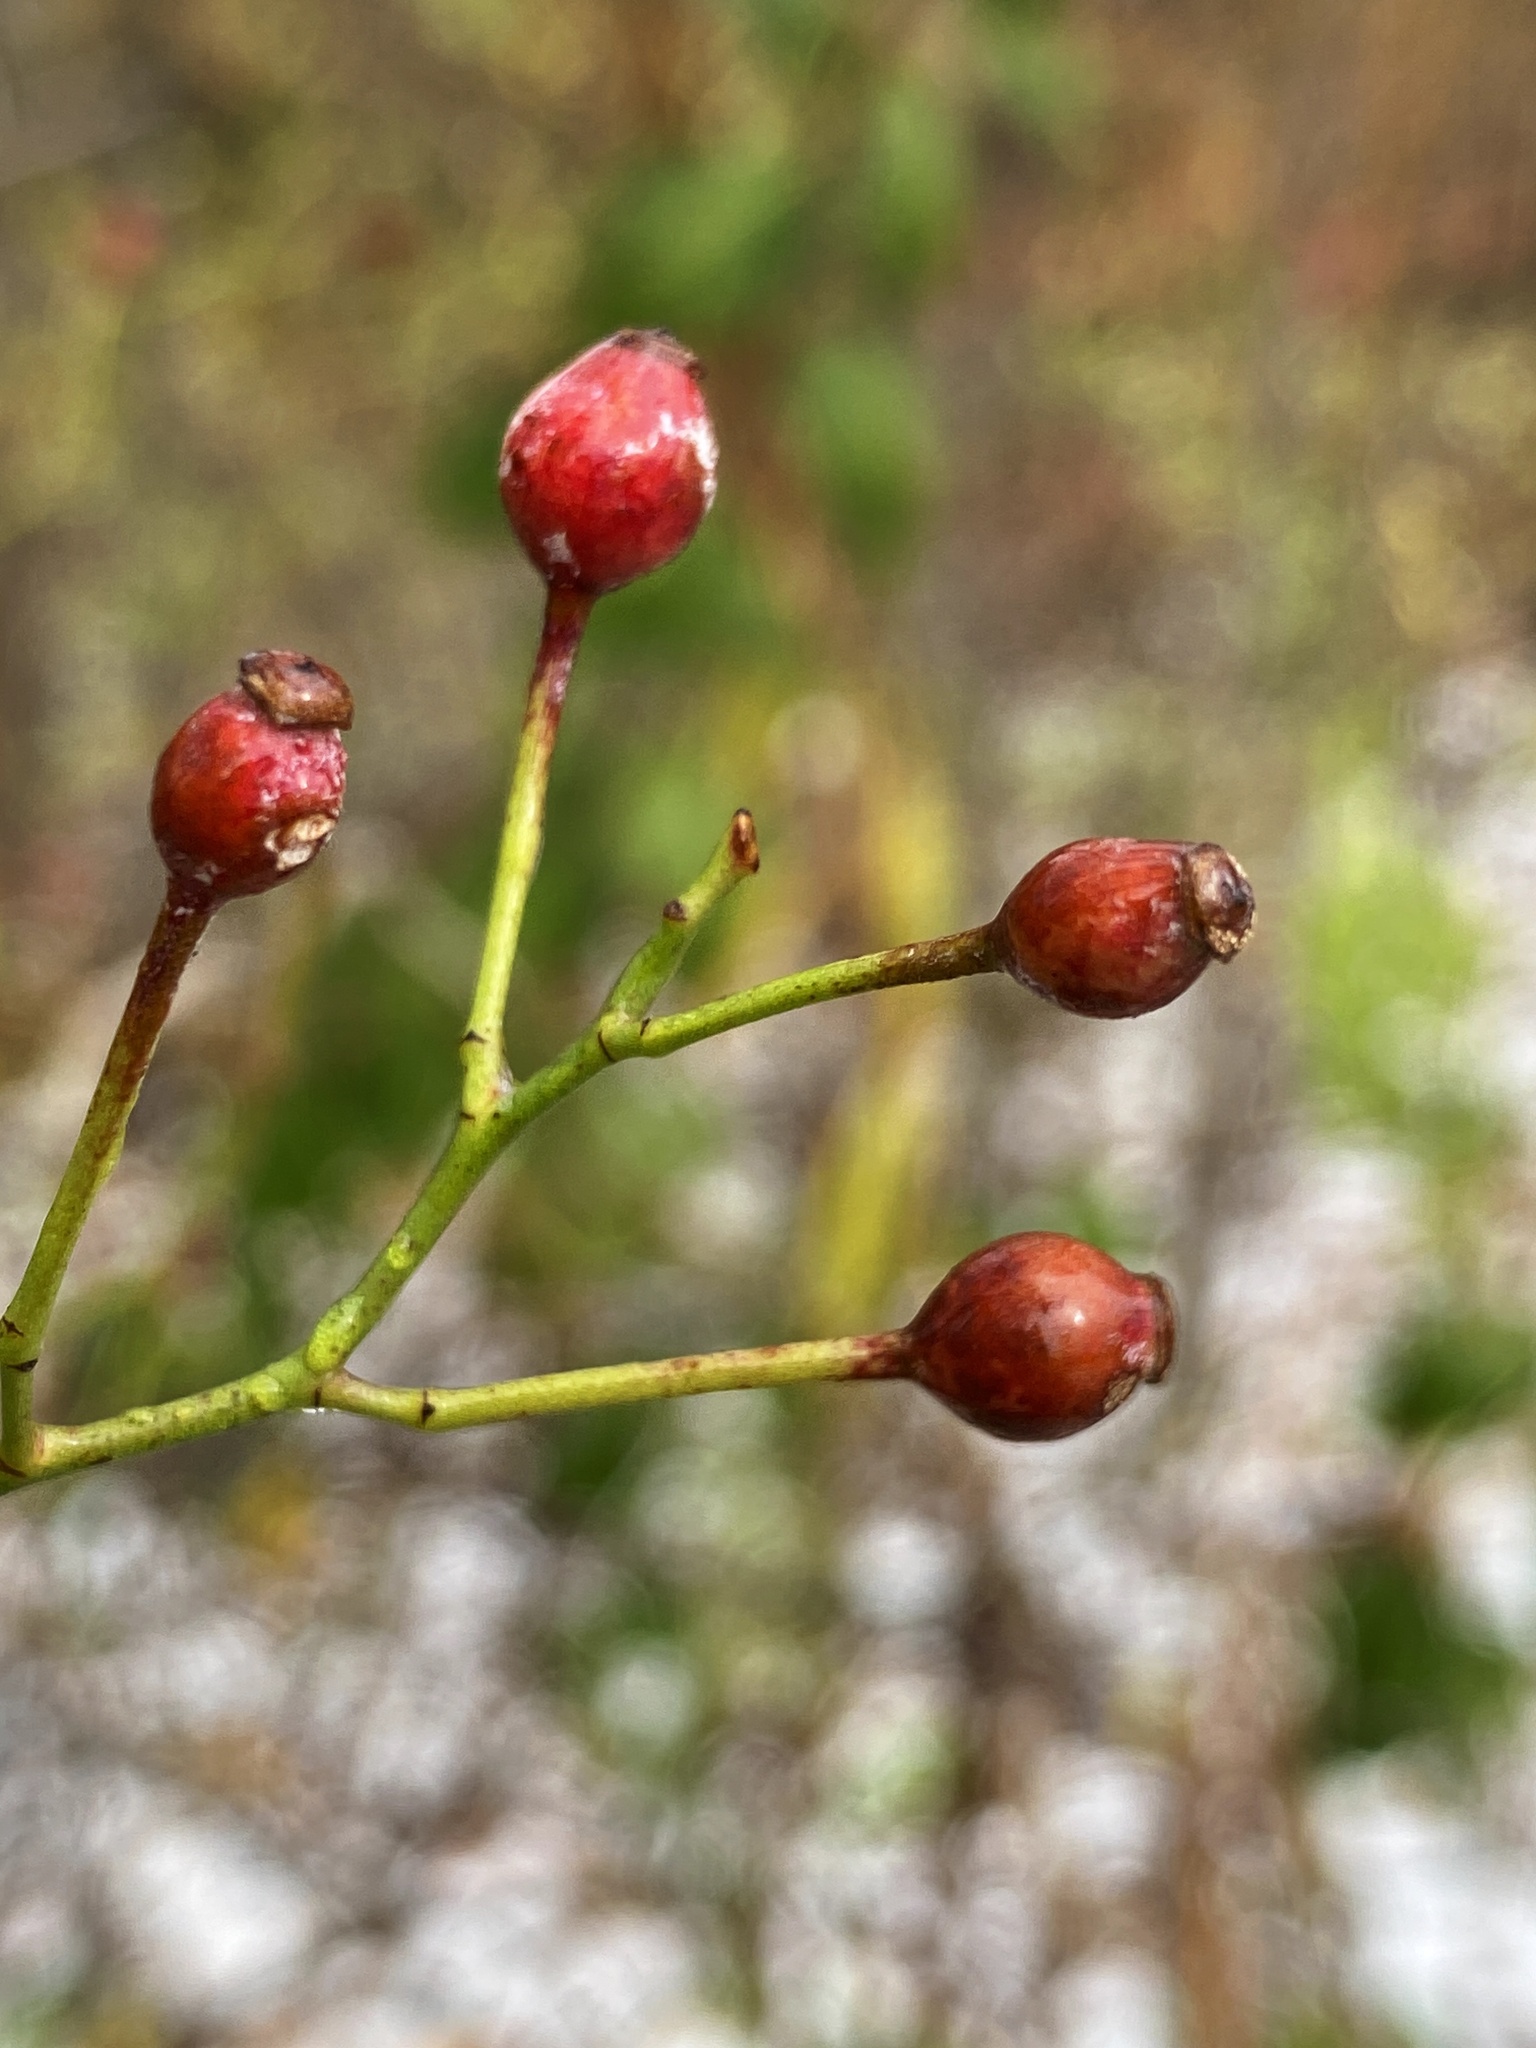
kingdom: Plantae
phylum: Tracheophyta
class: Magnoliopsida
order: Rosales
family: Rosaceae
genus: Rosa
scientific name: Rosa multiflora
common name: Multiflora rose
